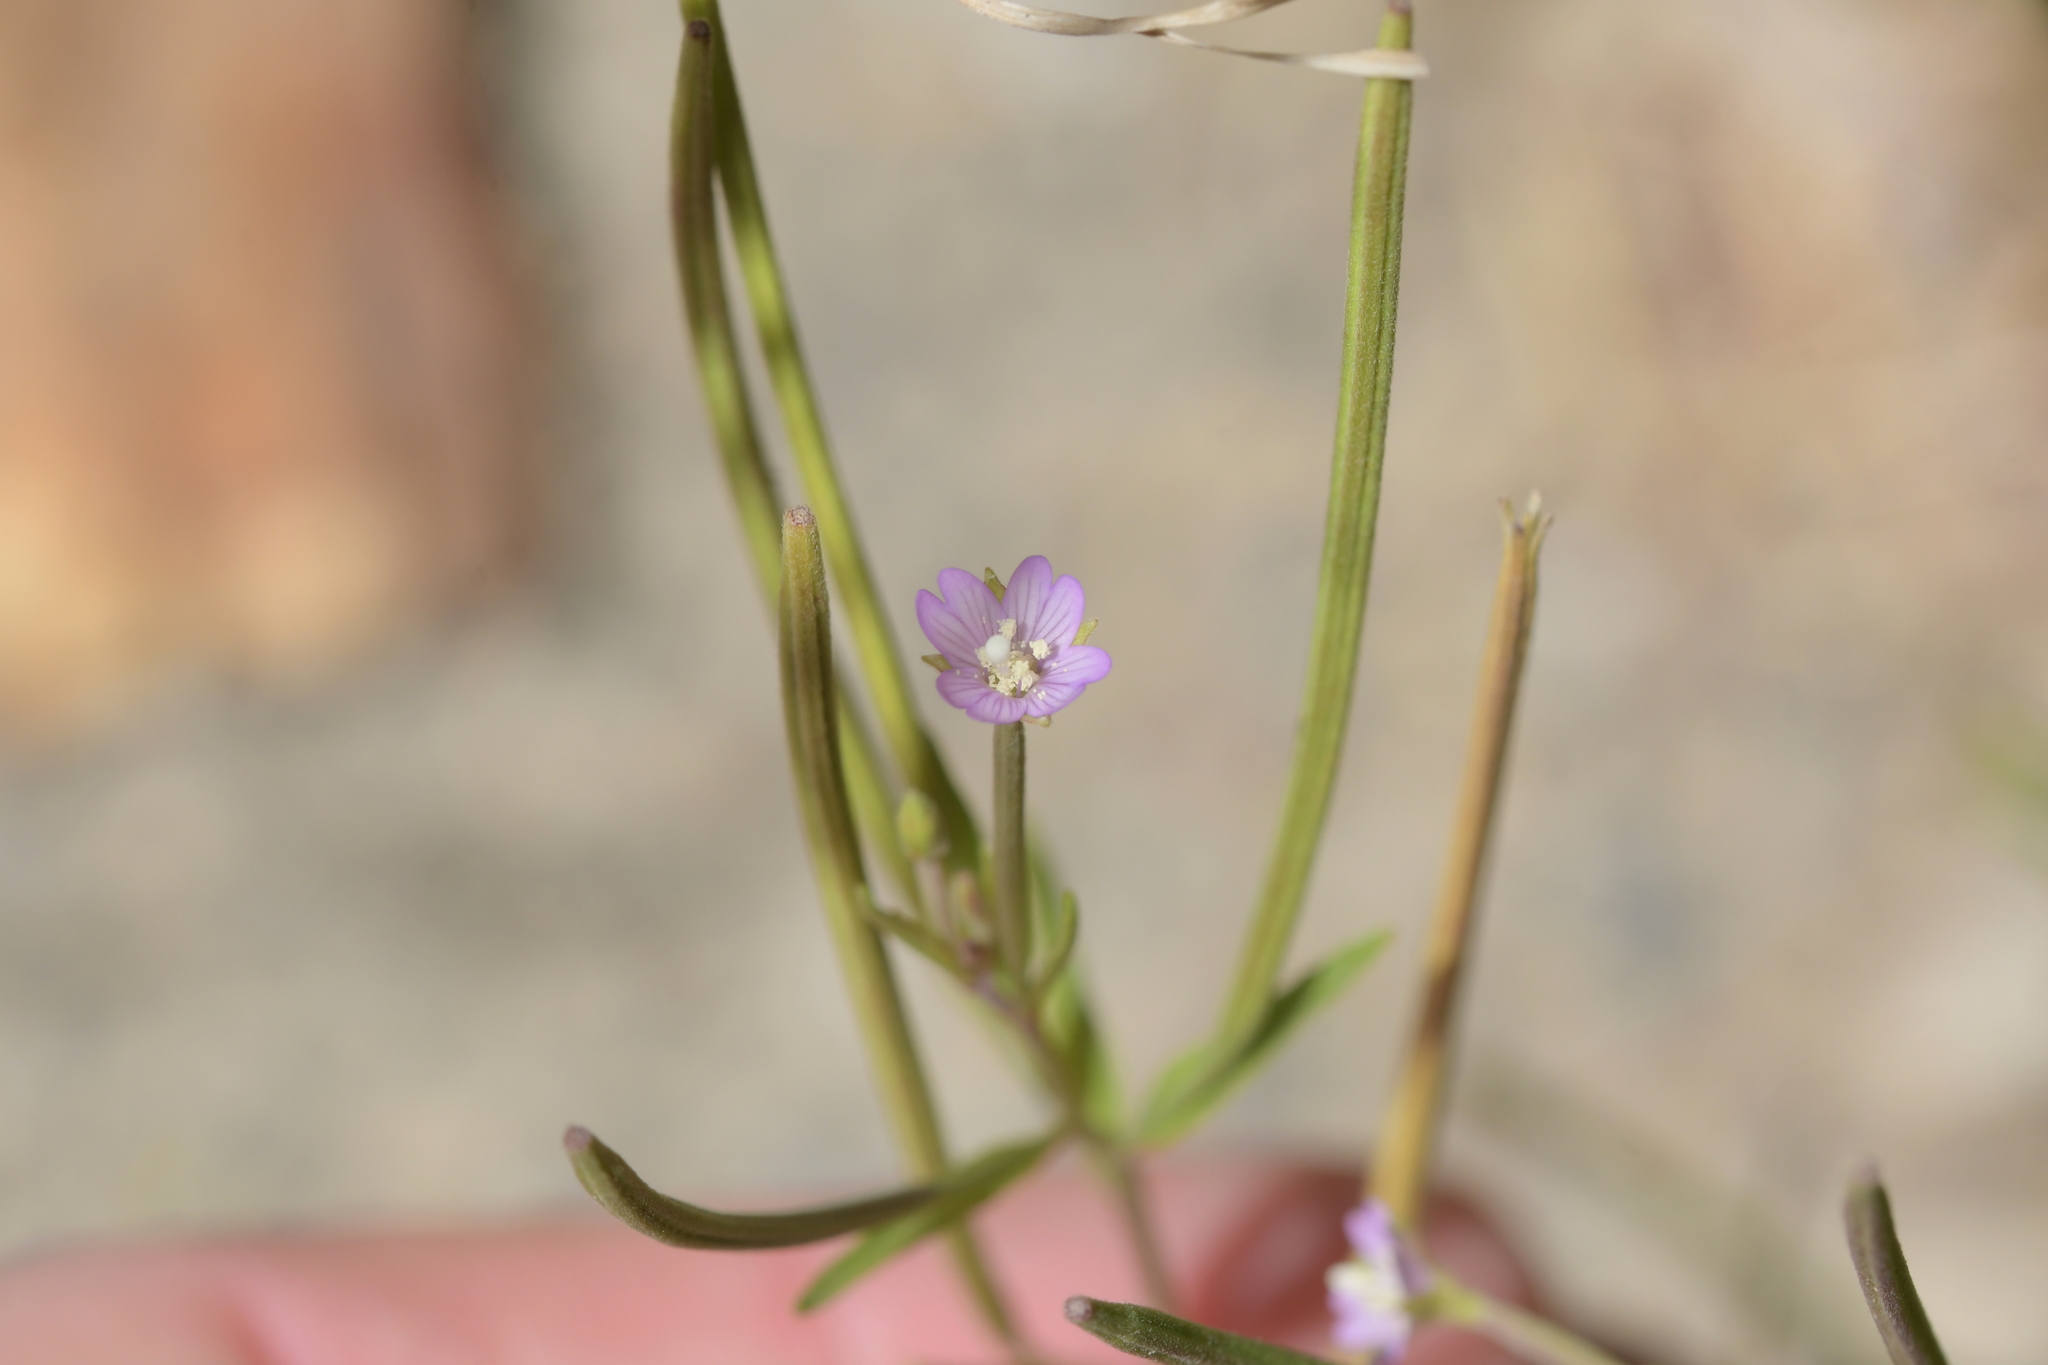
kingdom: Plantae
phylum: Tracheophyta
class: Magnoliopsida
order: Myrtales
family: Onagraceae
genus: Epilobium
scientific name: Epilobium ciliatum
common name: American willowherb
